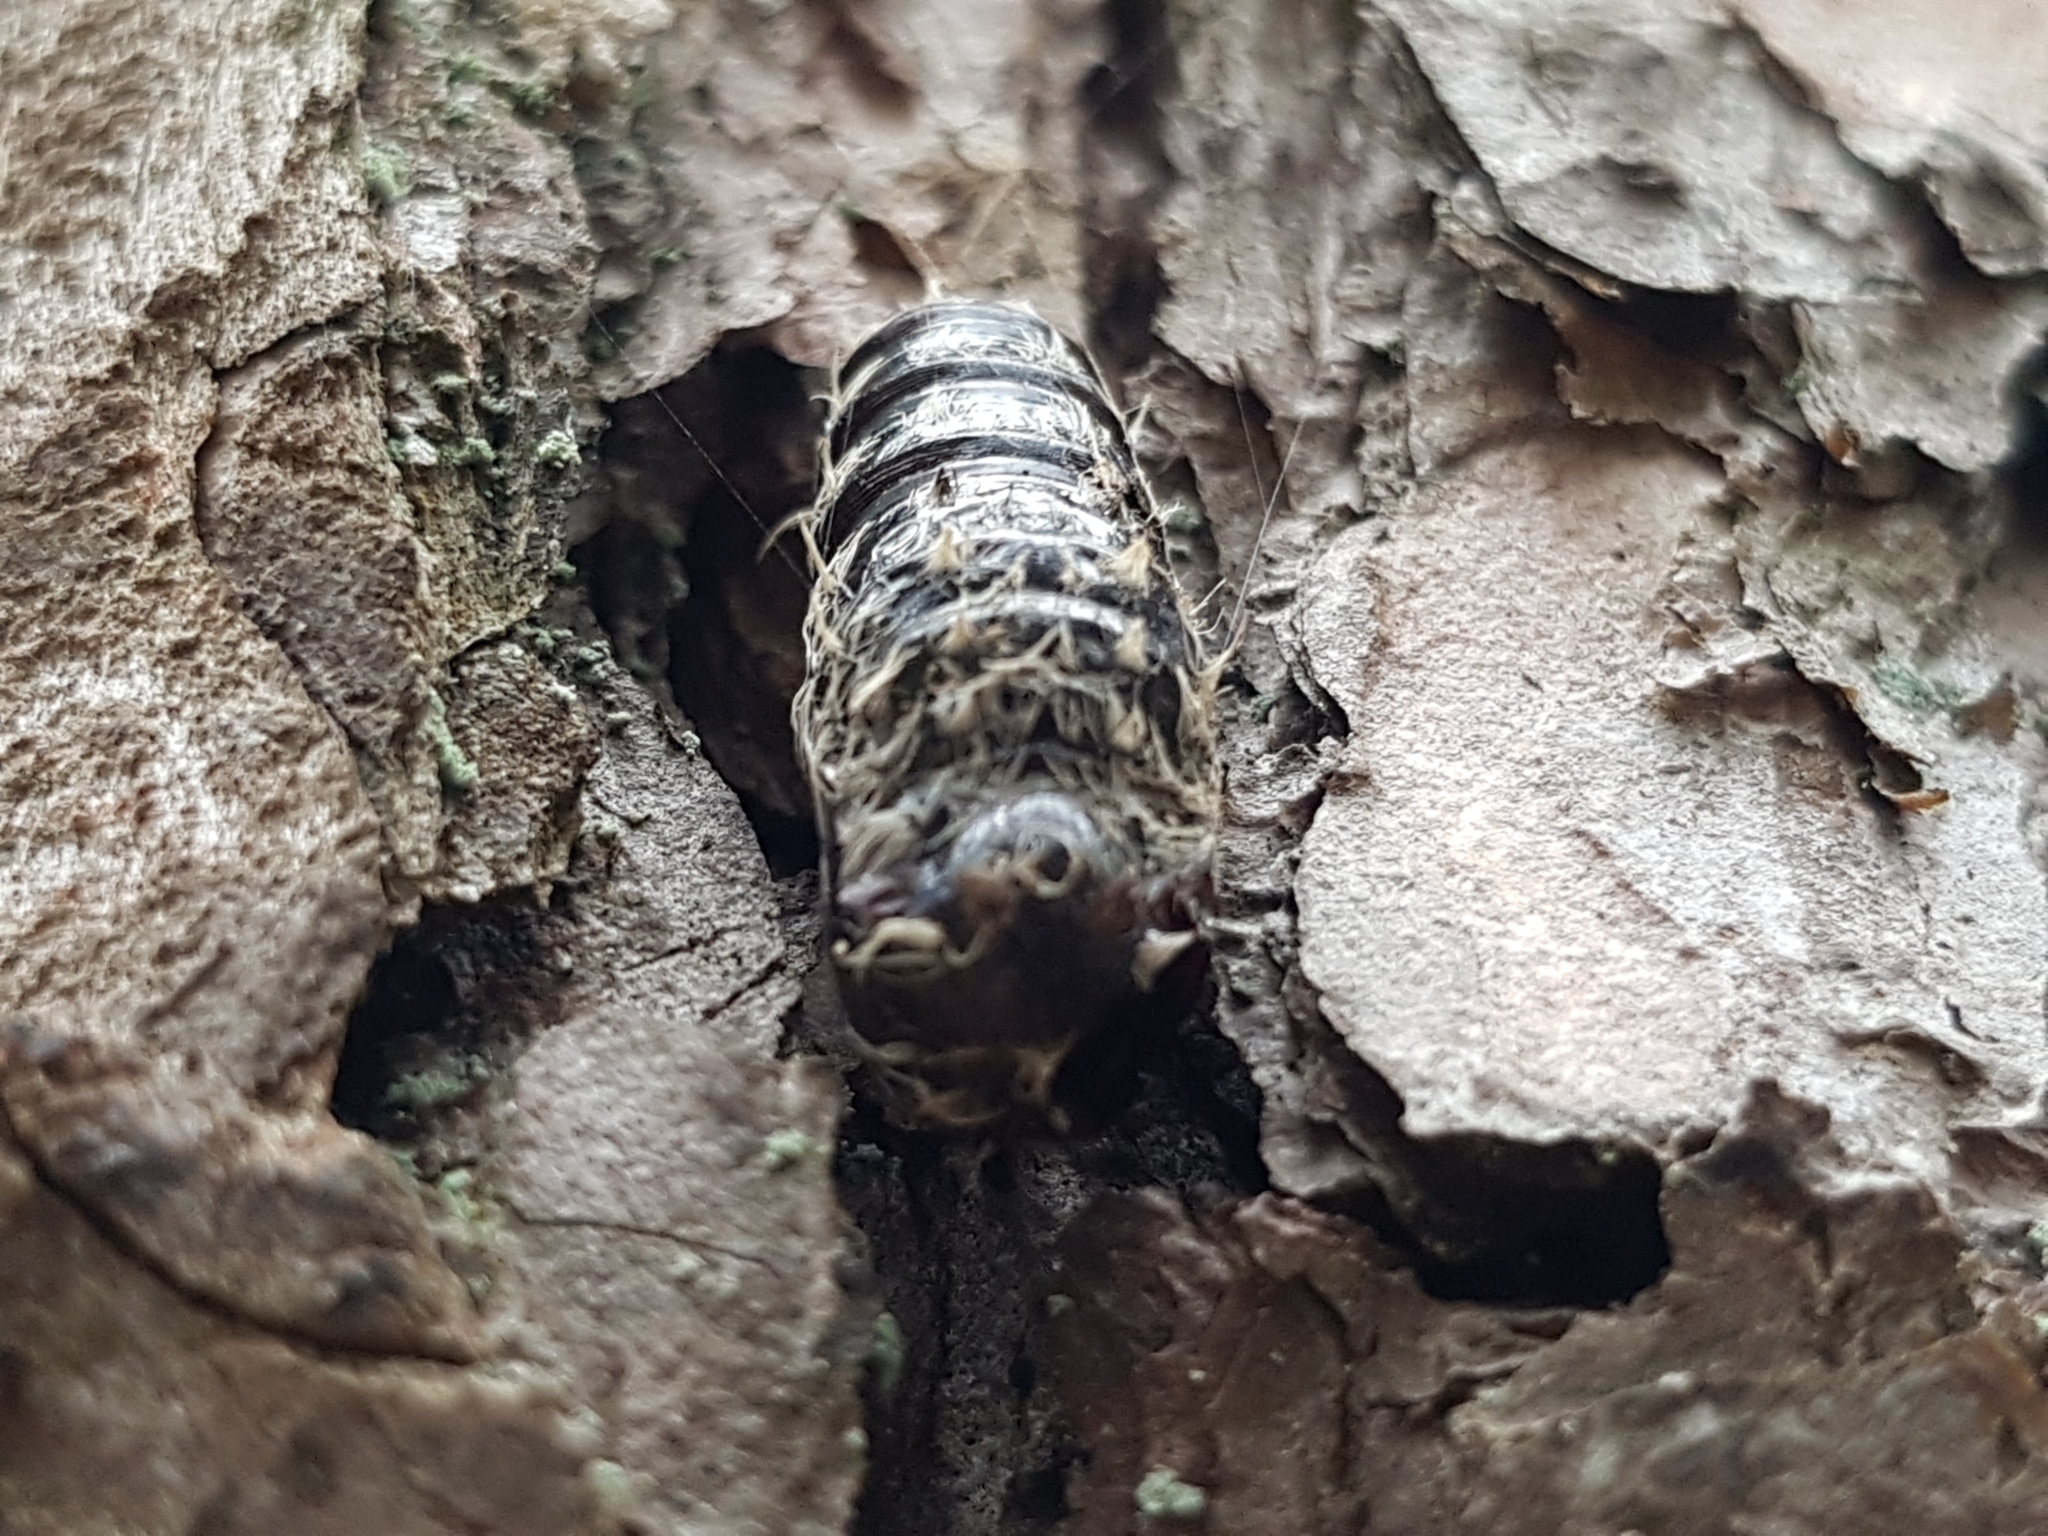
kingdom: Animalia
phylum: Arthropoda
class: Insecta
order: Lepidoptera
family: Erebidae
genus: Lymantria
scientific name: Lymantria dispar
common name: Gypsy moth
